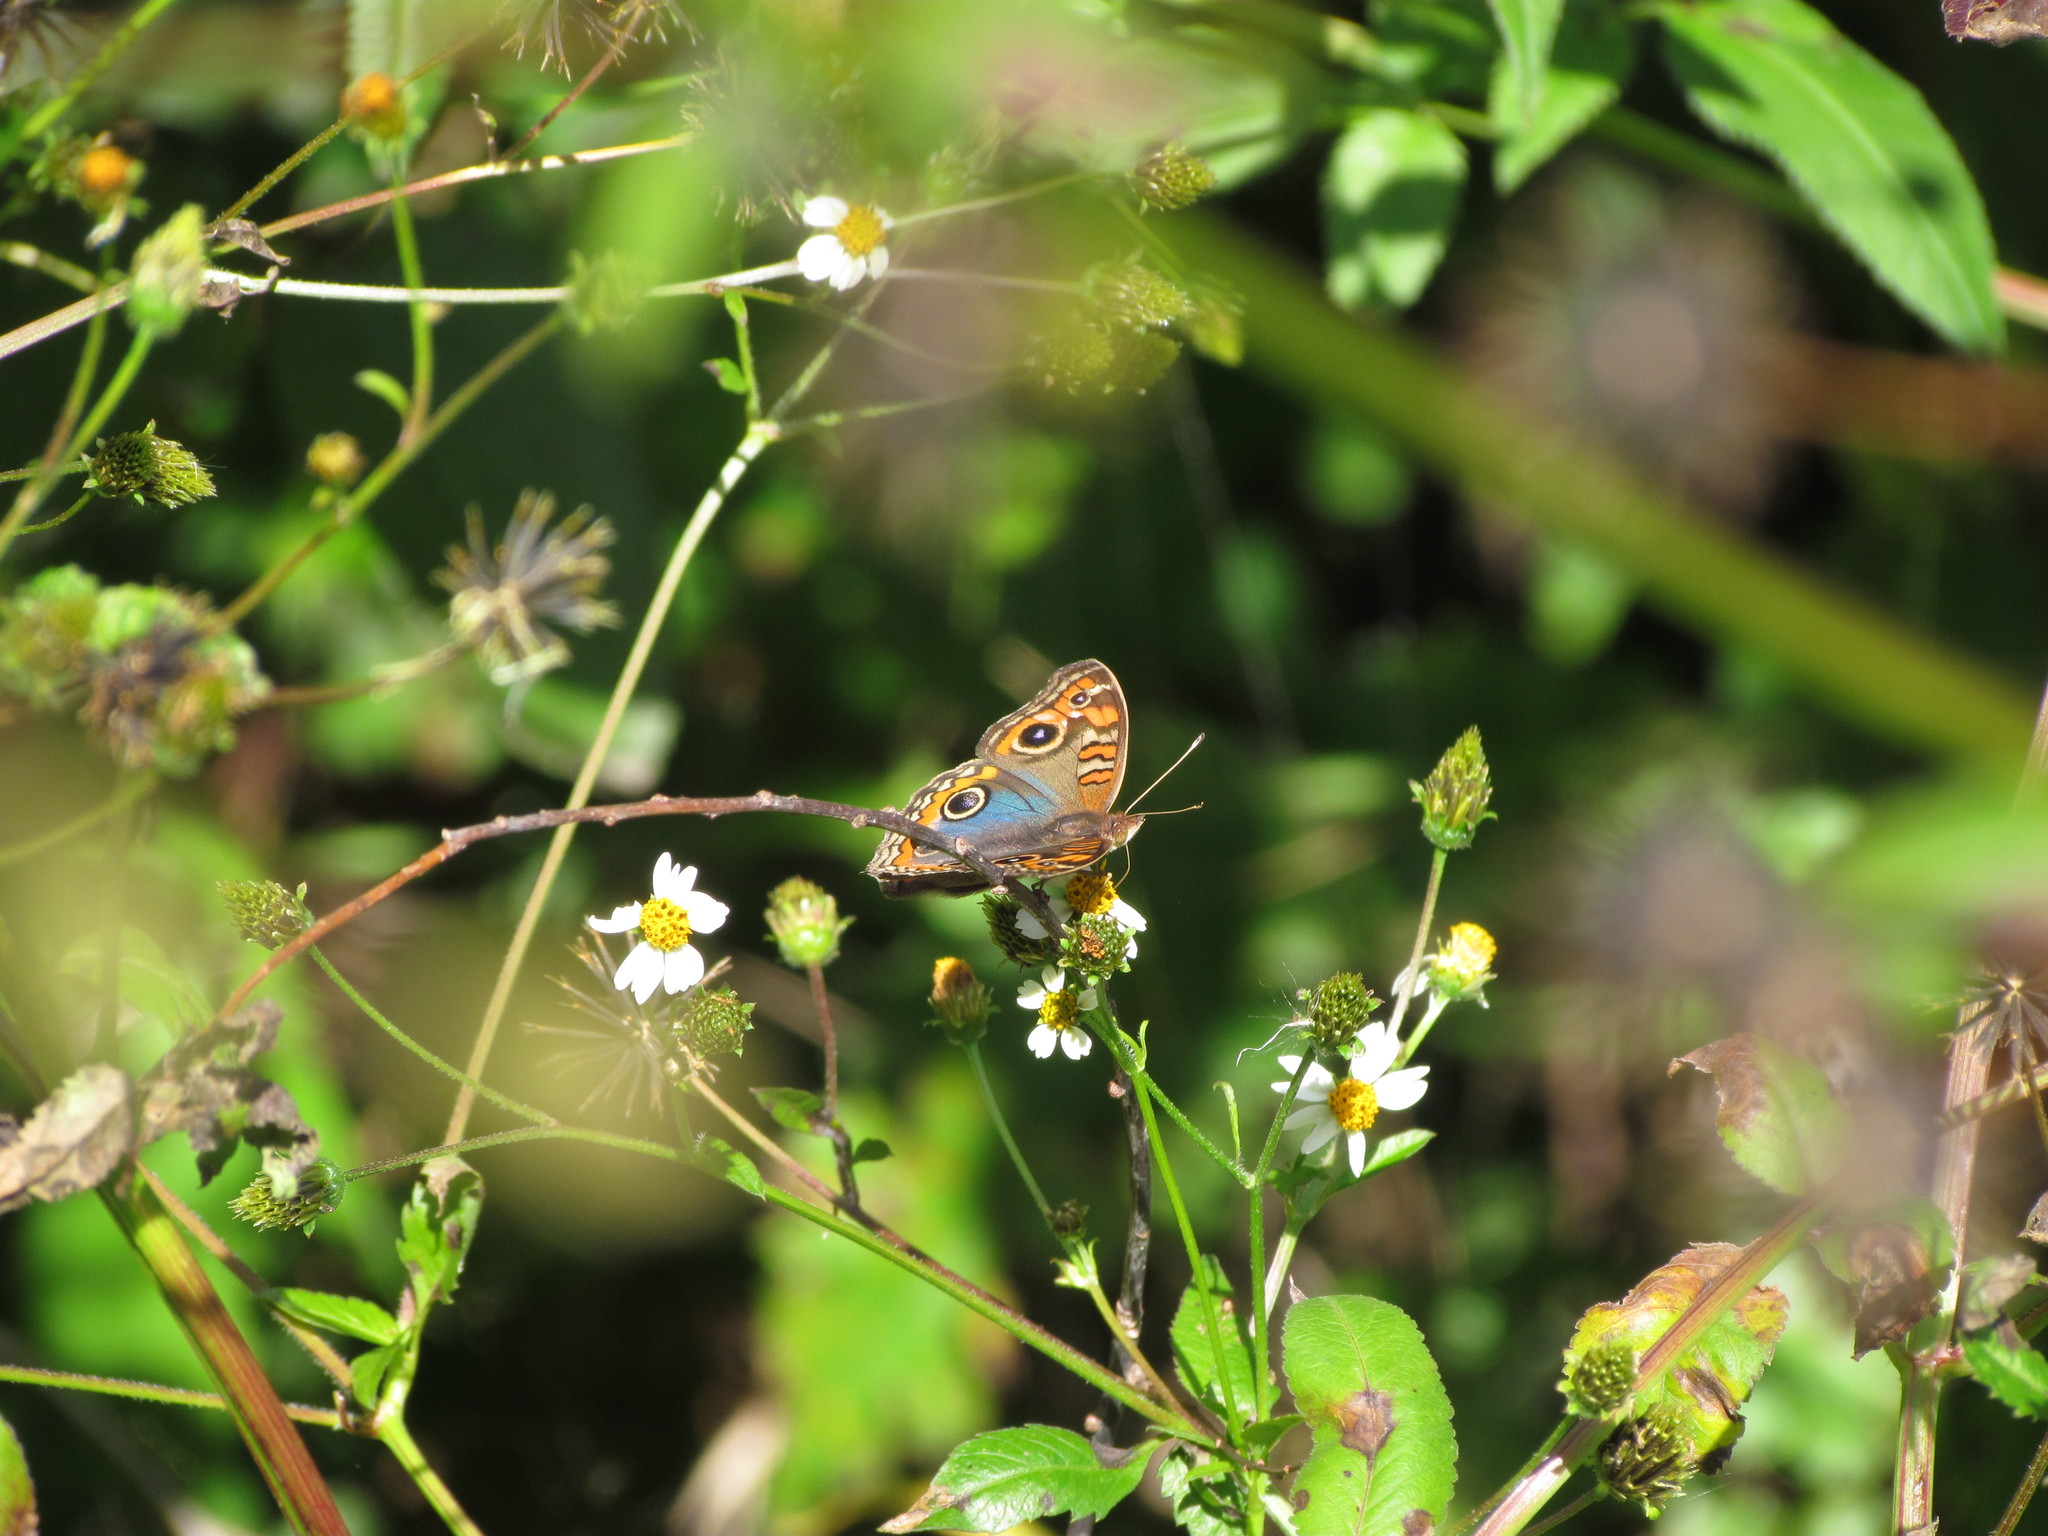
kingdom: Animalia
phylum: Arthropoda
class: Insecta
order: Lepidoptera
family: Nymphalidae
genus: Junonia
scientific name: Junonia lavinia
